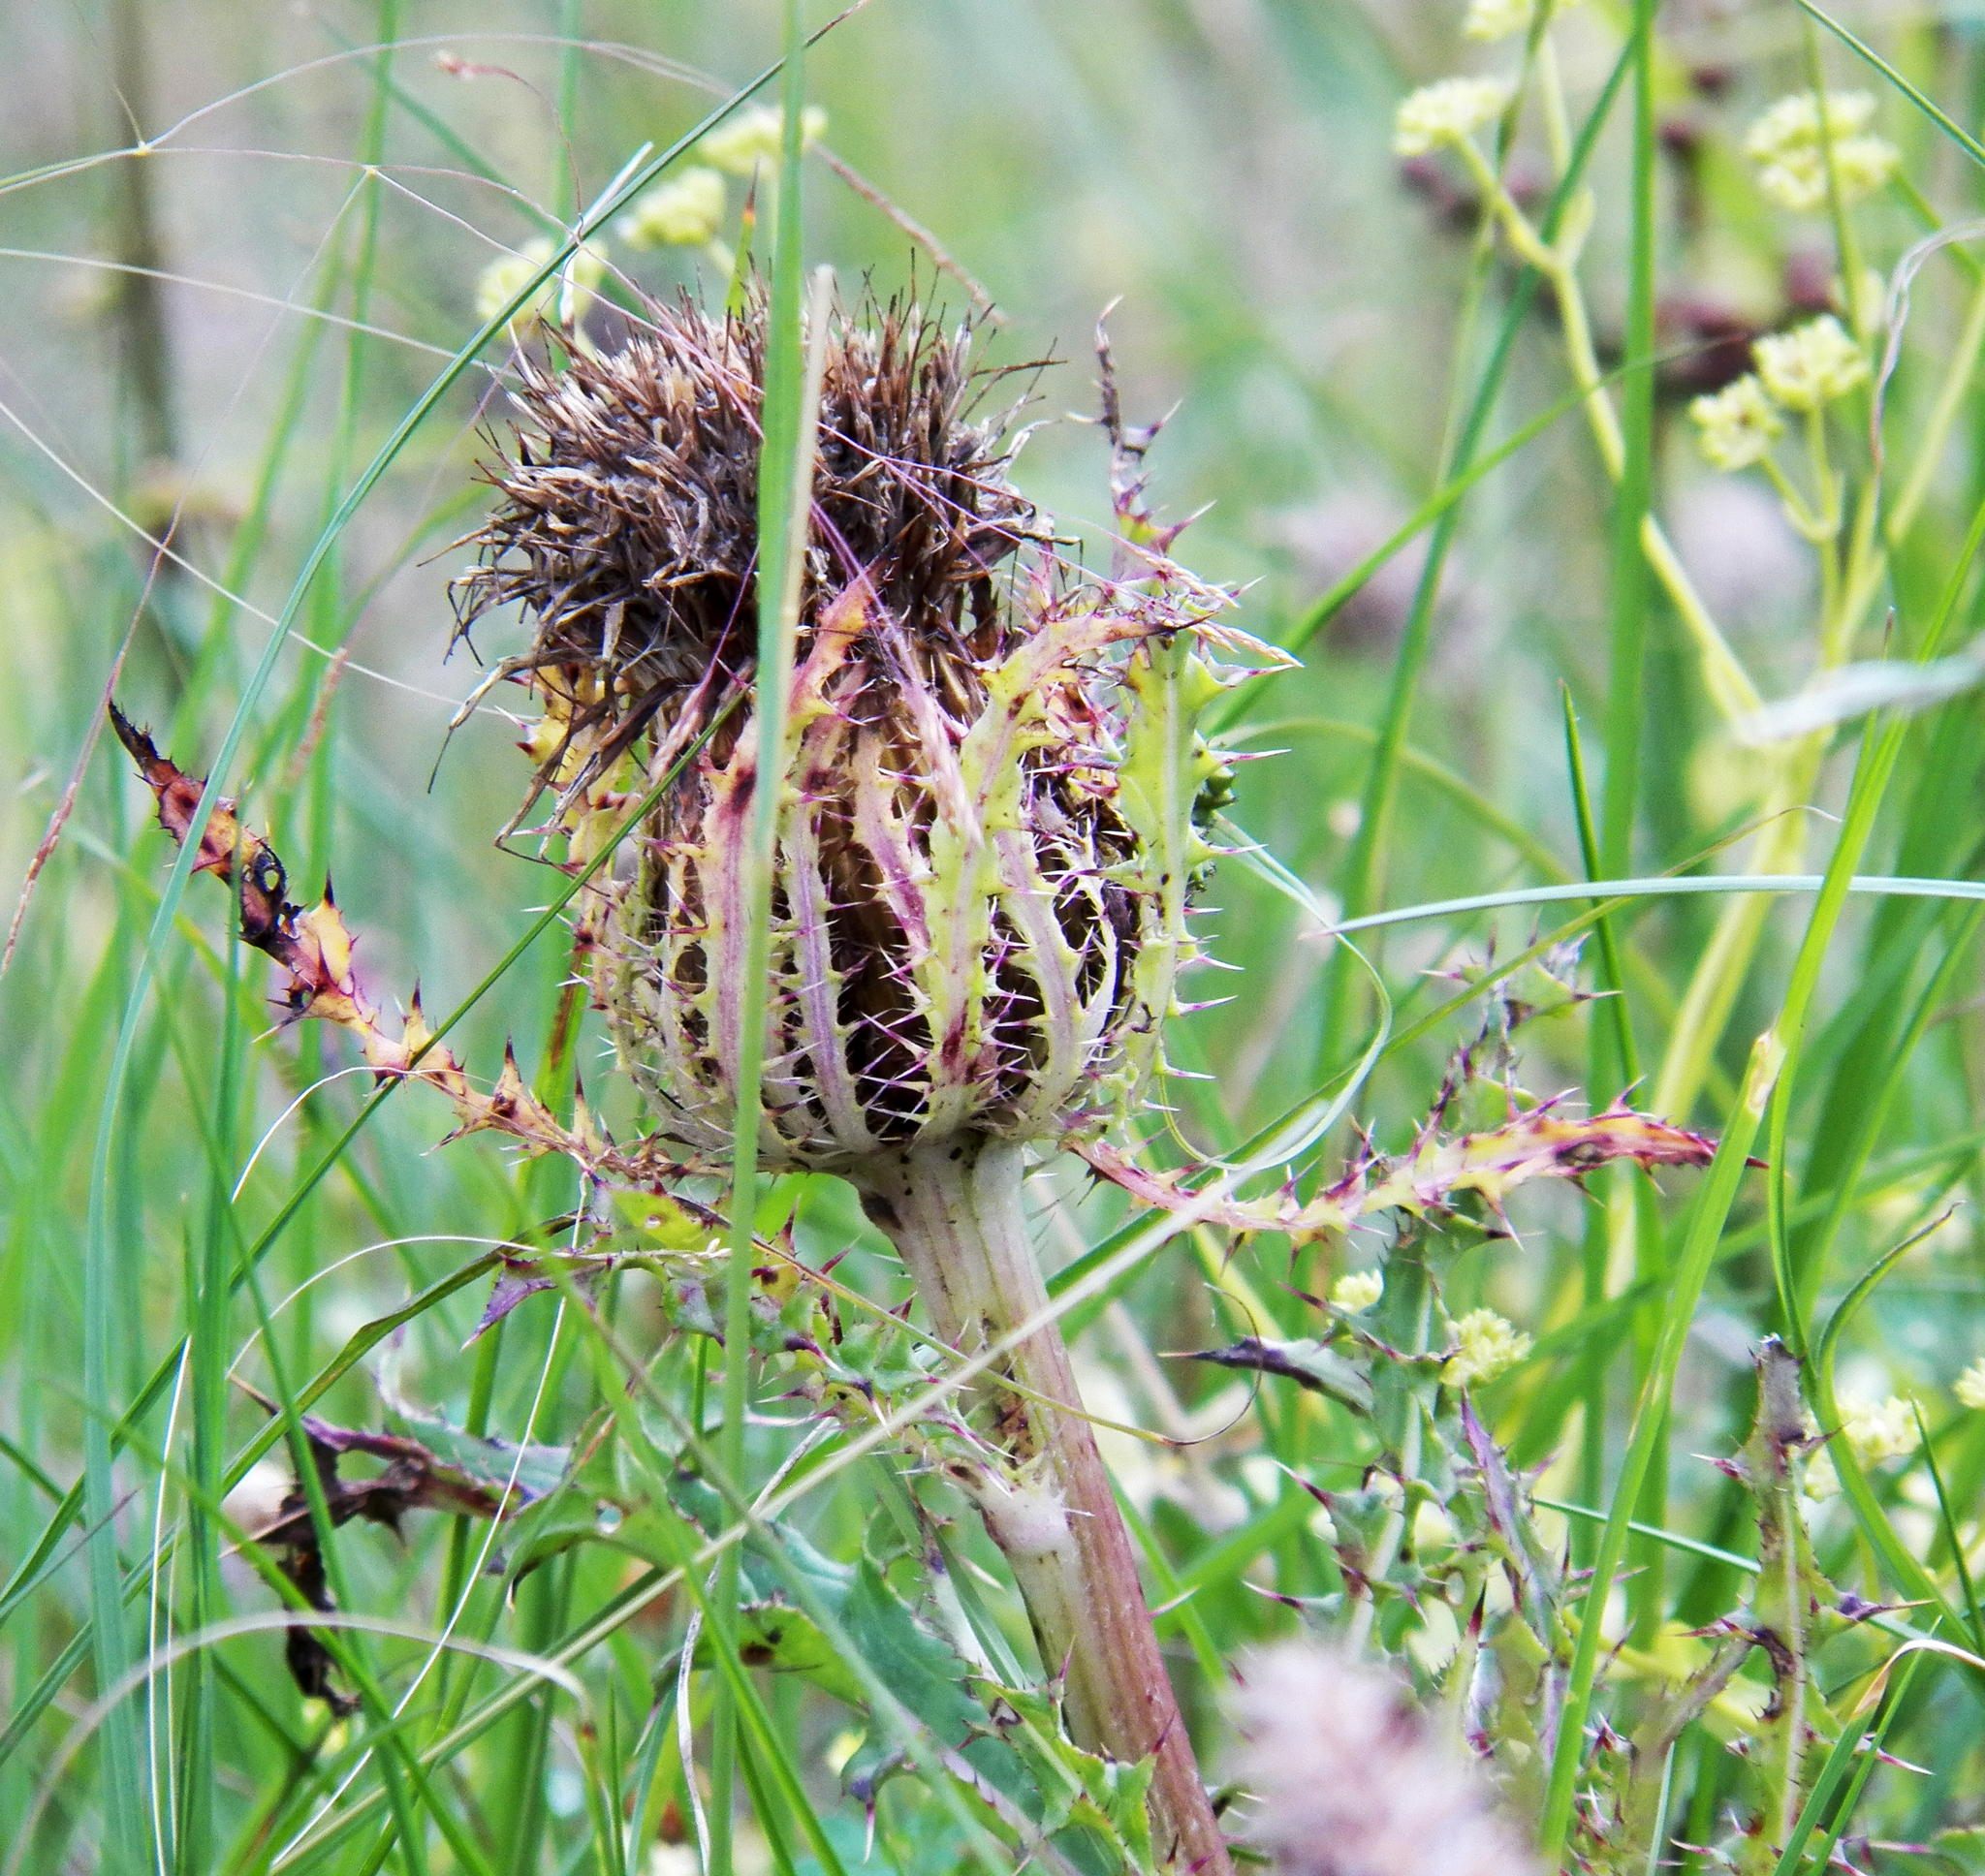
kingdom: Plantae
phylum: Tracheophyta
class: Magnoliopsida
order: Asterales
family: Asteraceae
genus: Cirsium
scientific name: Cirsium horridulum
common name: Bristly thistle
